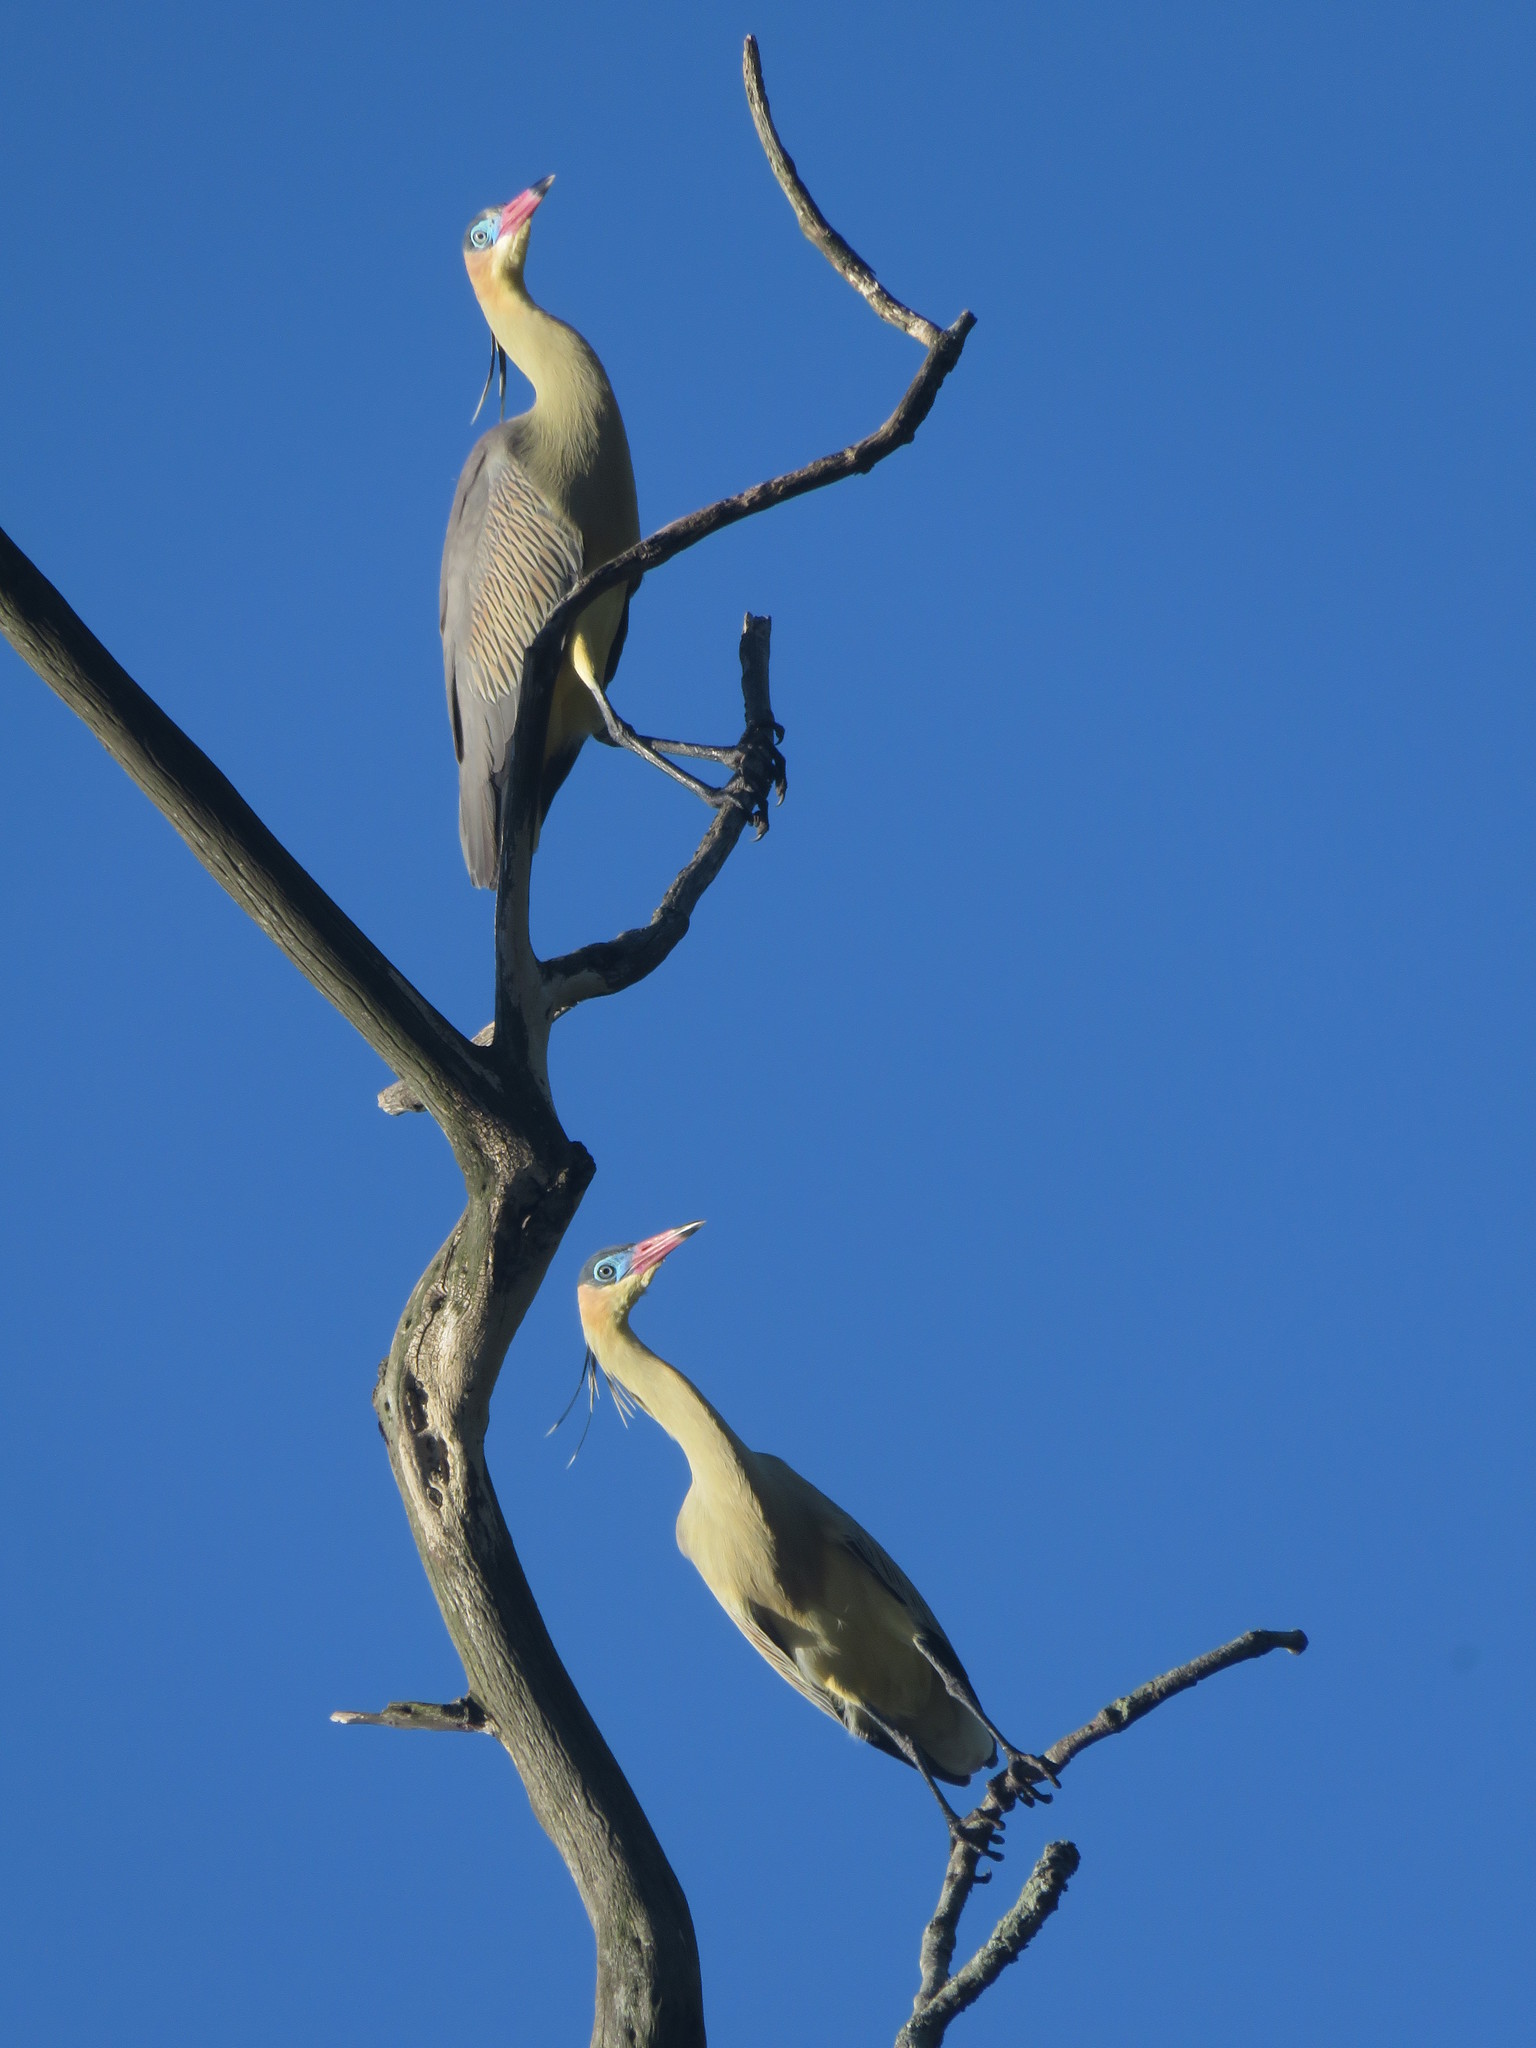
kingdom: Animalia
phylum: Chordata
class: Aves
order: Pelecaniformes
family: Ardeidae
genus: Syrigma
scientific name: Syrigma sibilatrix
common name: Whistling heron
